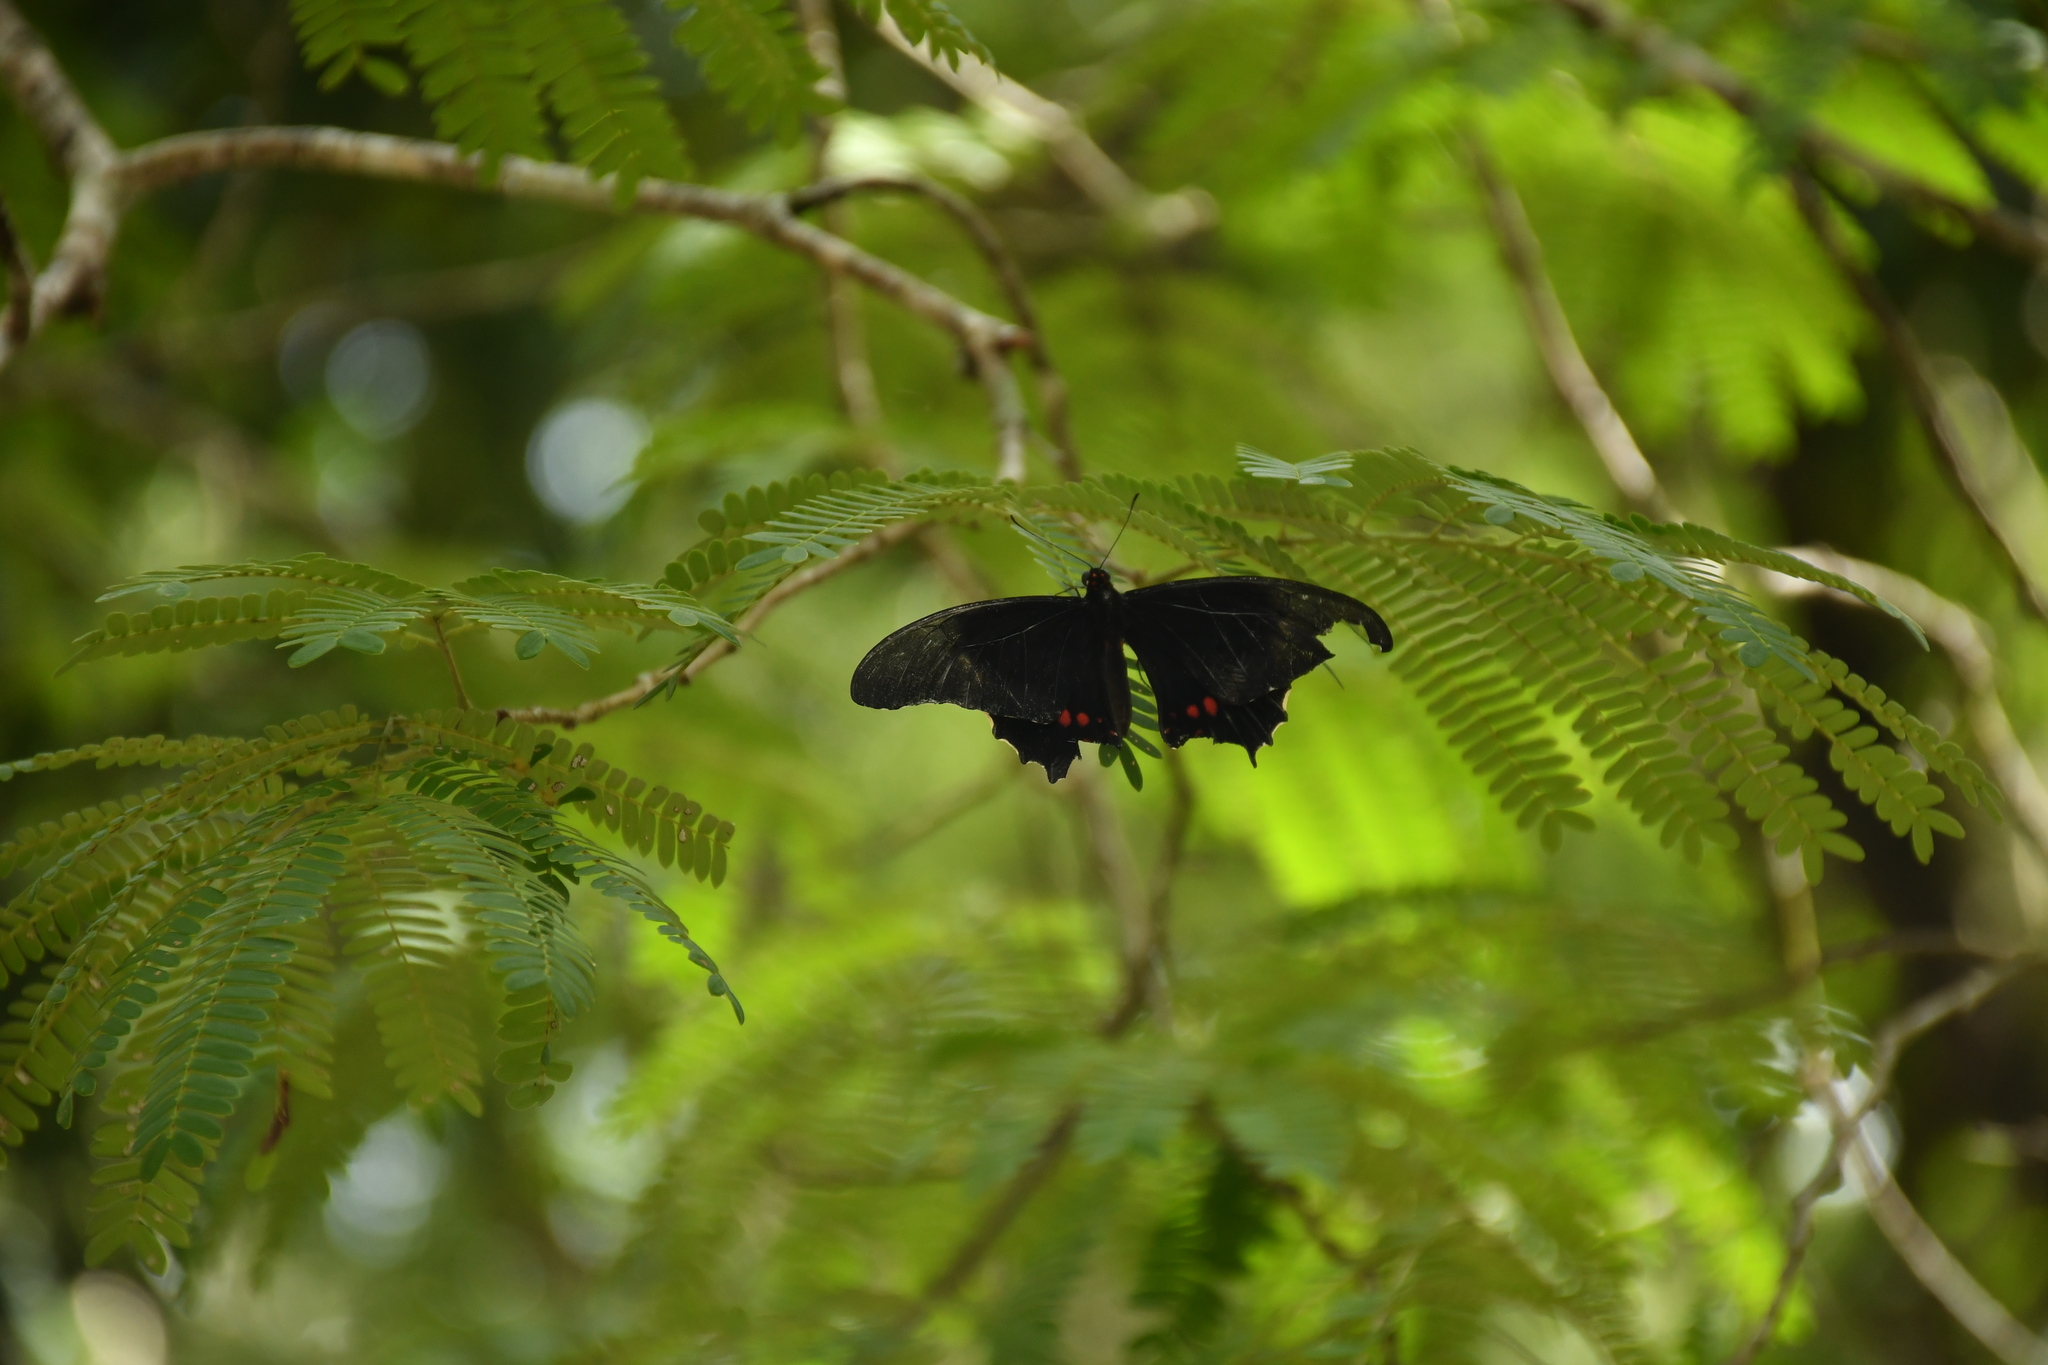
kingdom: Animalia
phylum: Arthropoda
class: Insecta
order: Lepidoptera
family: Papilionidae
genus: Heraclides
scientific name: Heraclides rogeri
